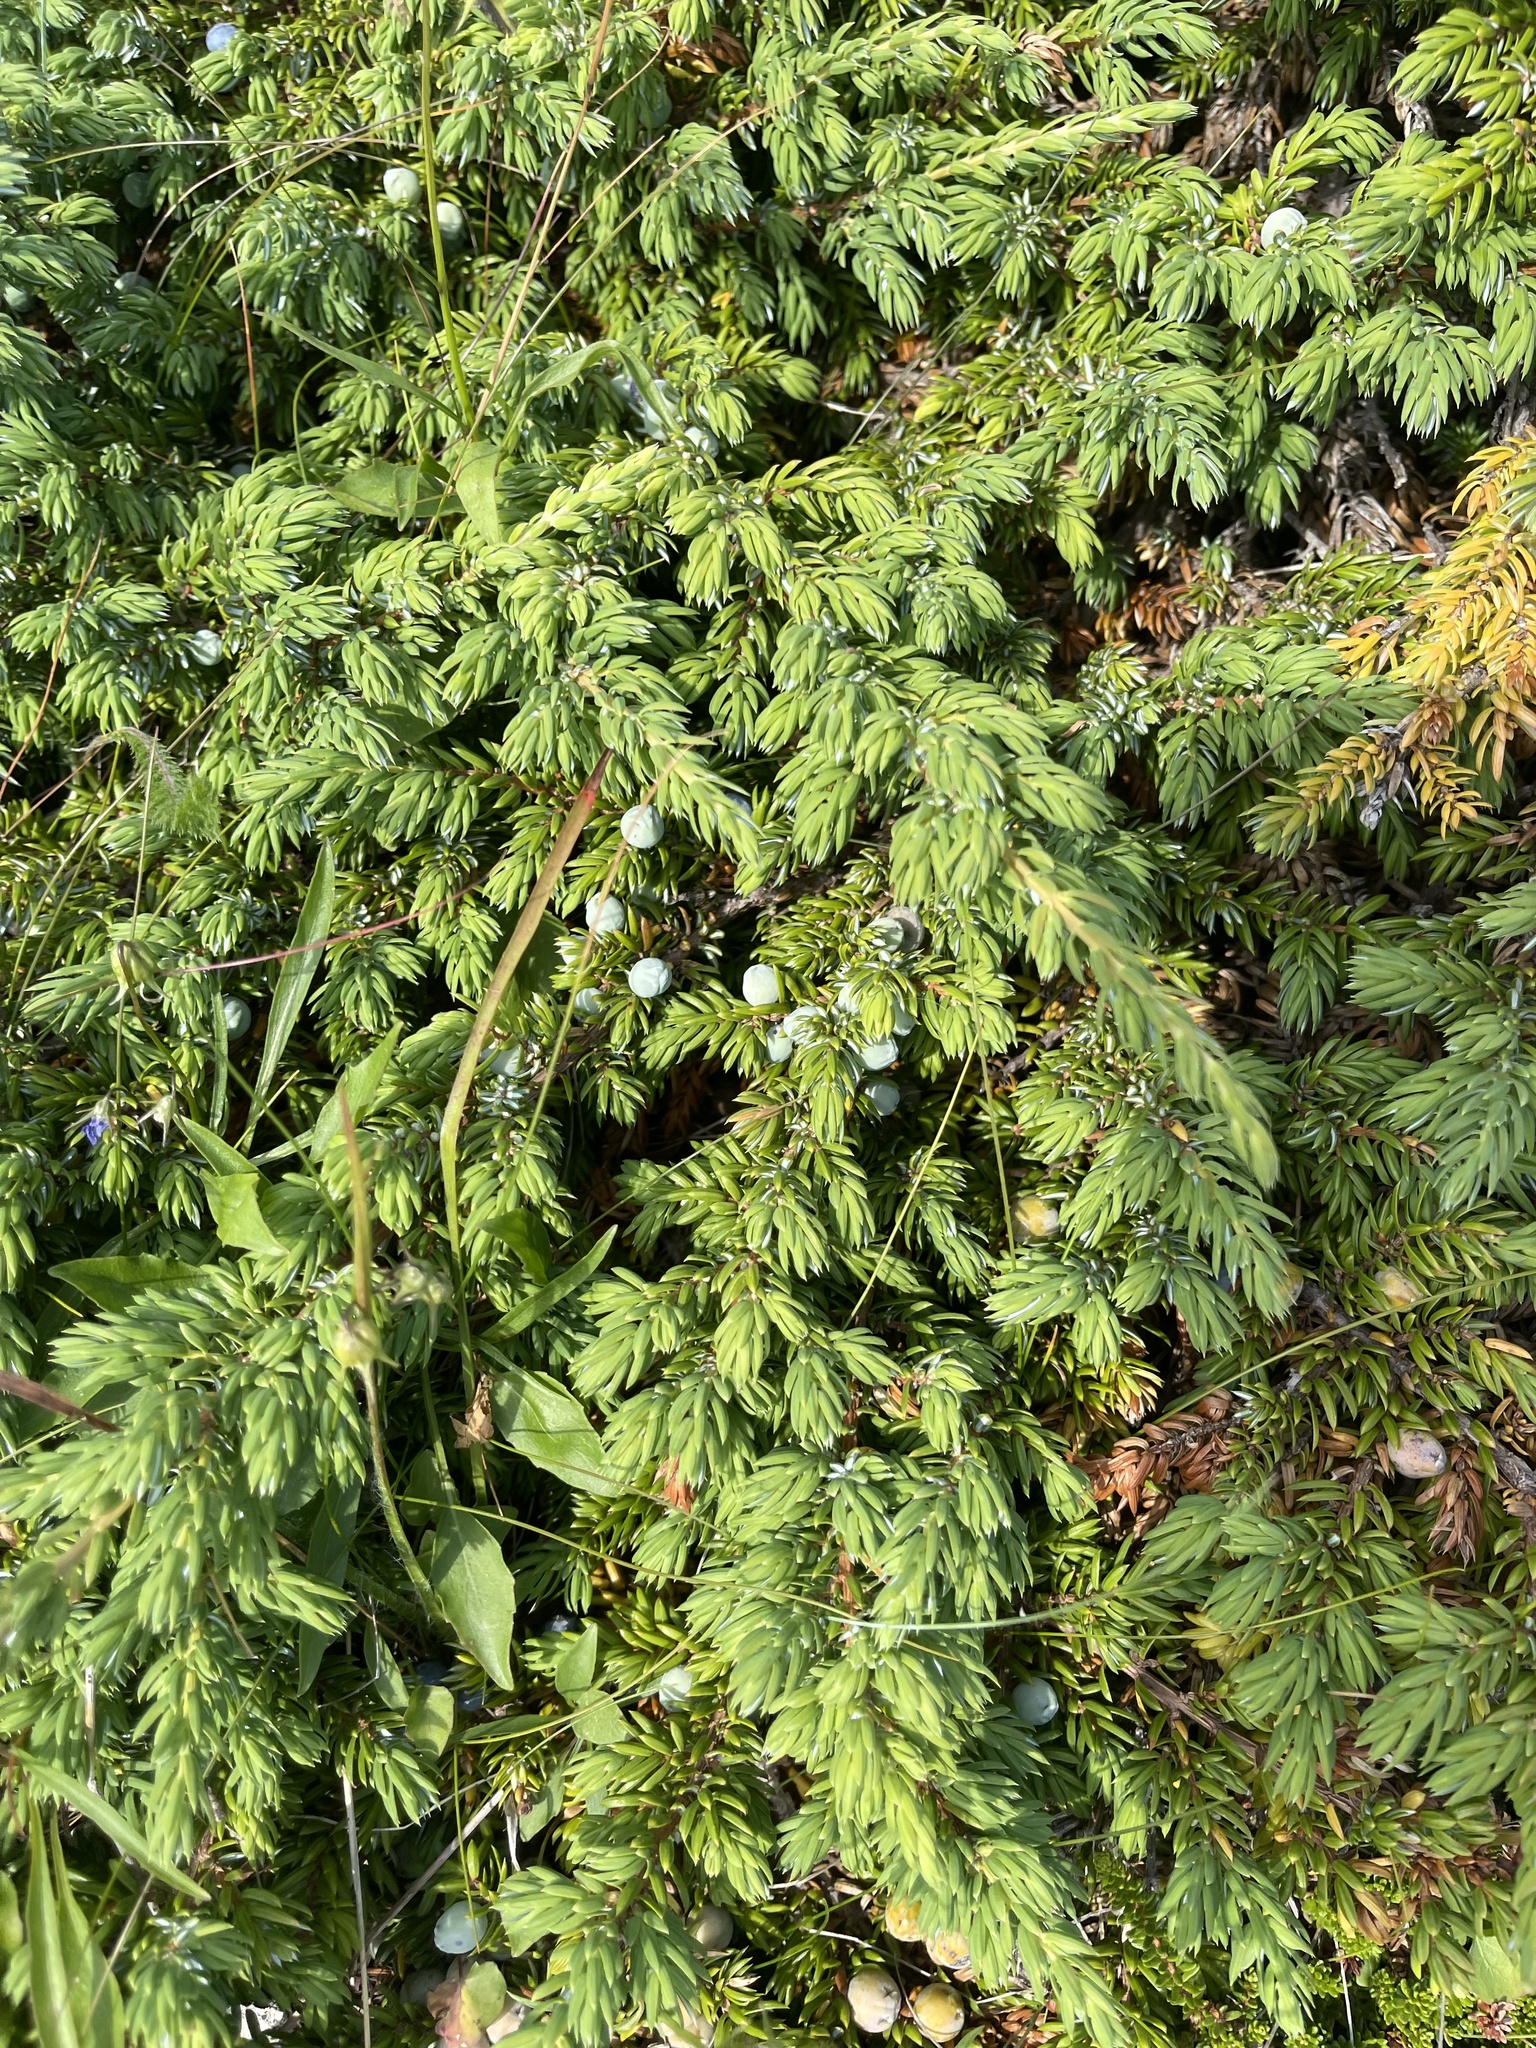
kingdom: Plantae
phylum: Tracheophyta
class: Pinopsida
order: Pinales
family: Cupressaceae
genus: Juniperus
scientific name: Juniperus communis
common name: Common juniper
